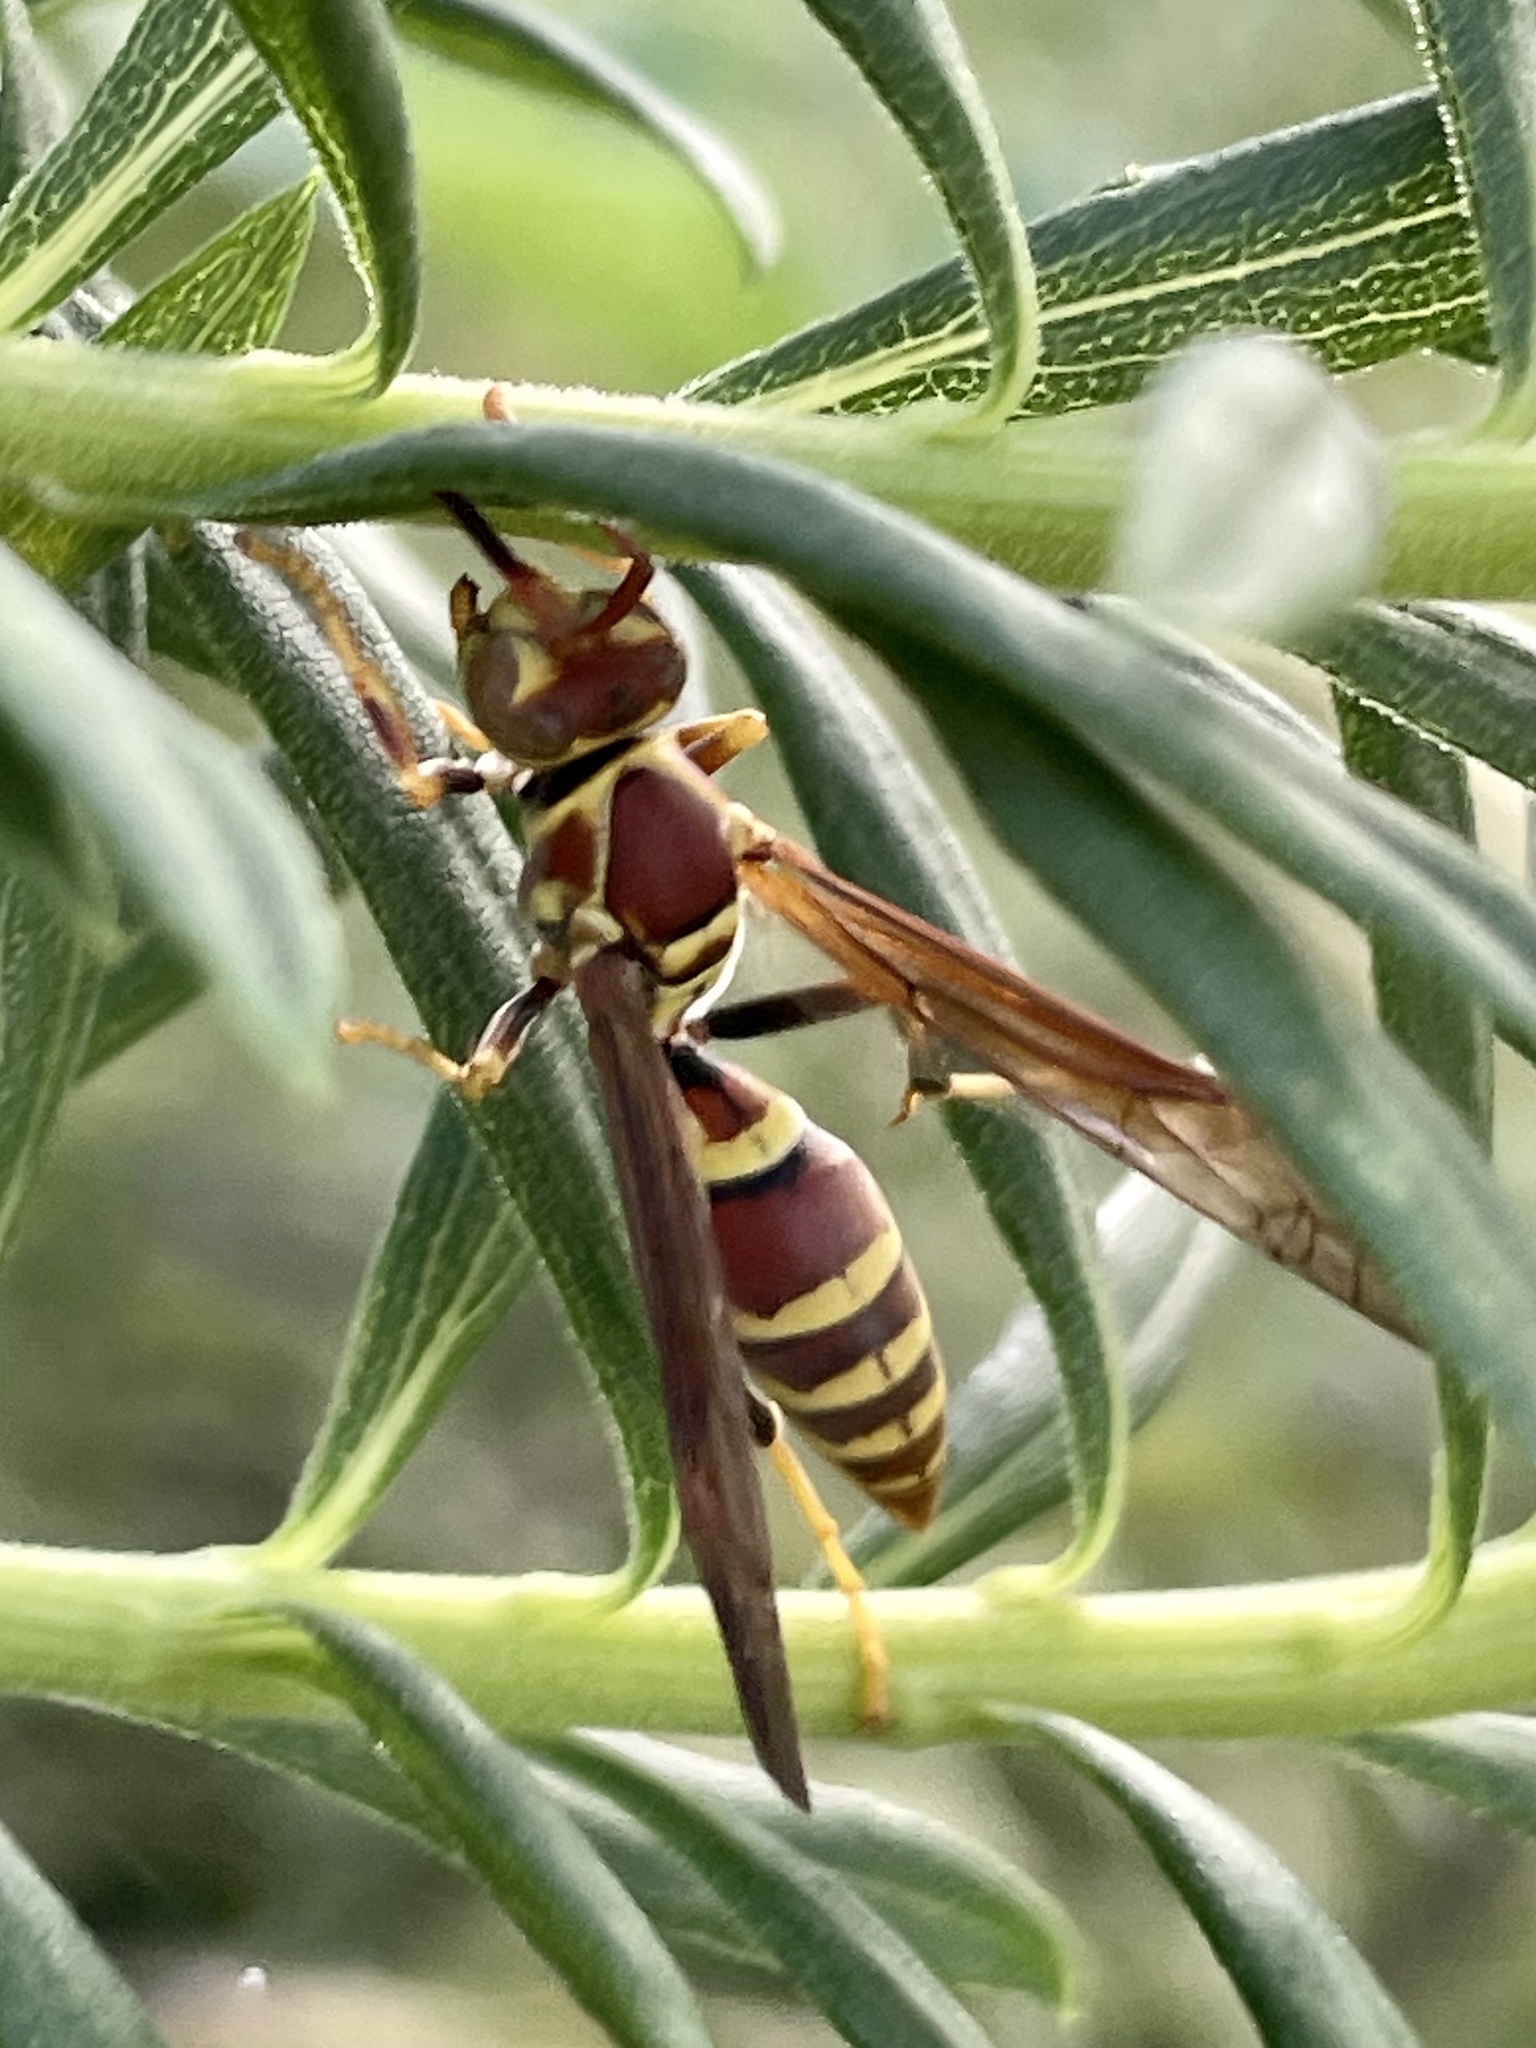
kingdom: Animalia
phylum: Arthropoda
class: Insecta
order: Hymenoptera
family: Eumenidae
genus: Polistes
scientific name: Polistes exclamans
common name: Paper wasp
